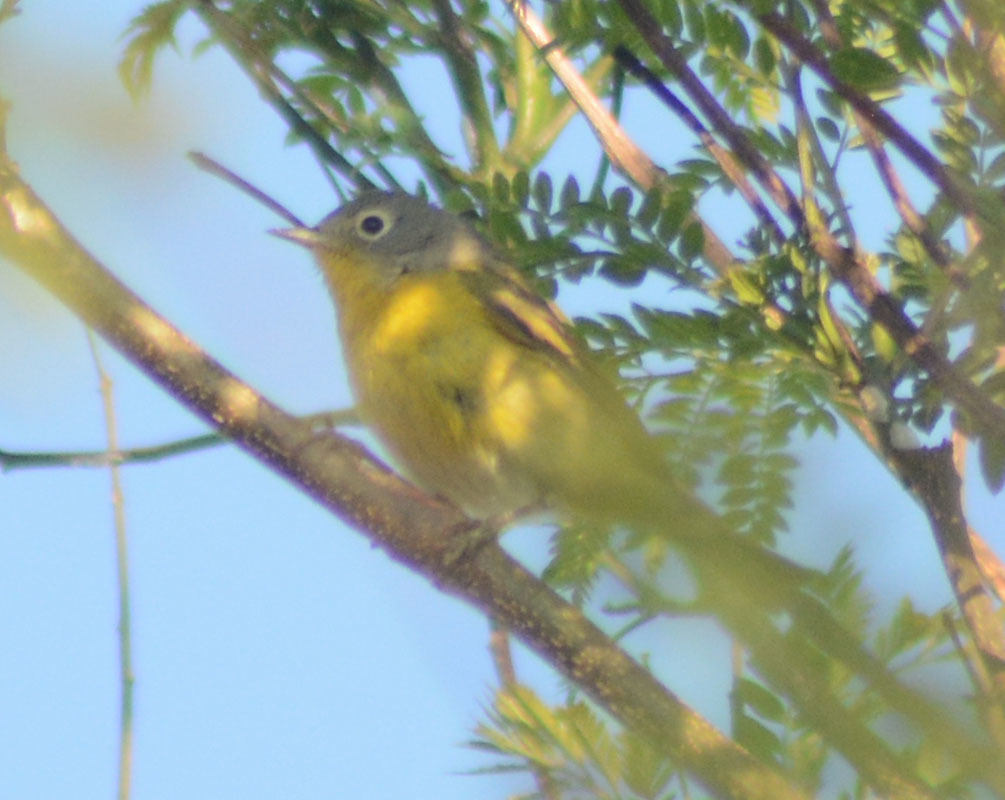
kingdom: Animalia
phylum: Chordata
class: Aves
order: Passeriformes
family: Parulidae
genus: Leiothlypis
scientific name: Leiothlypis ruficapilla
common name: Nashville warbler
